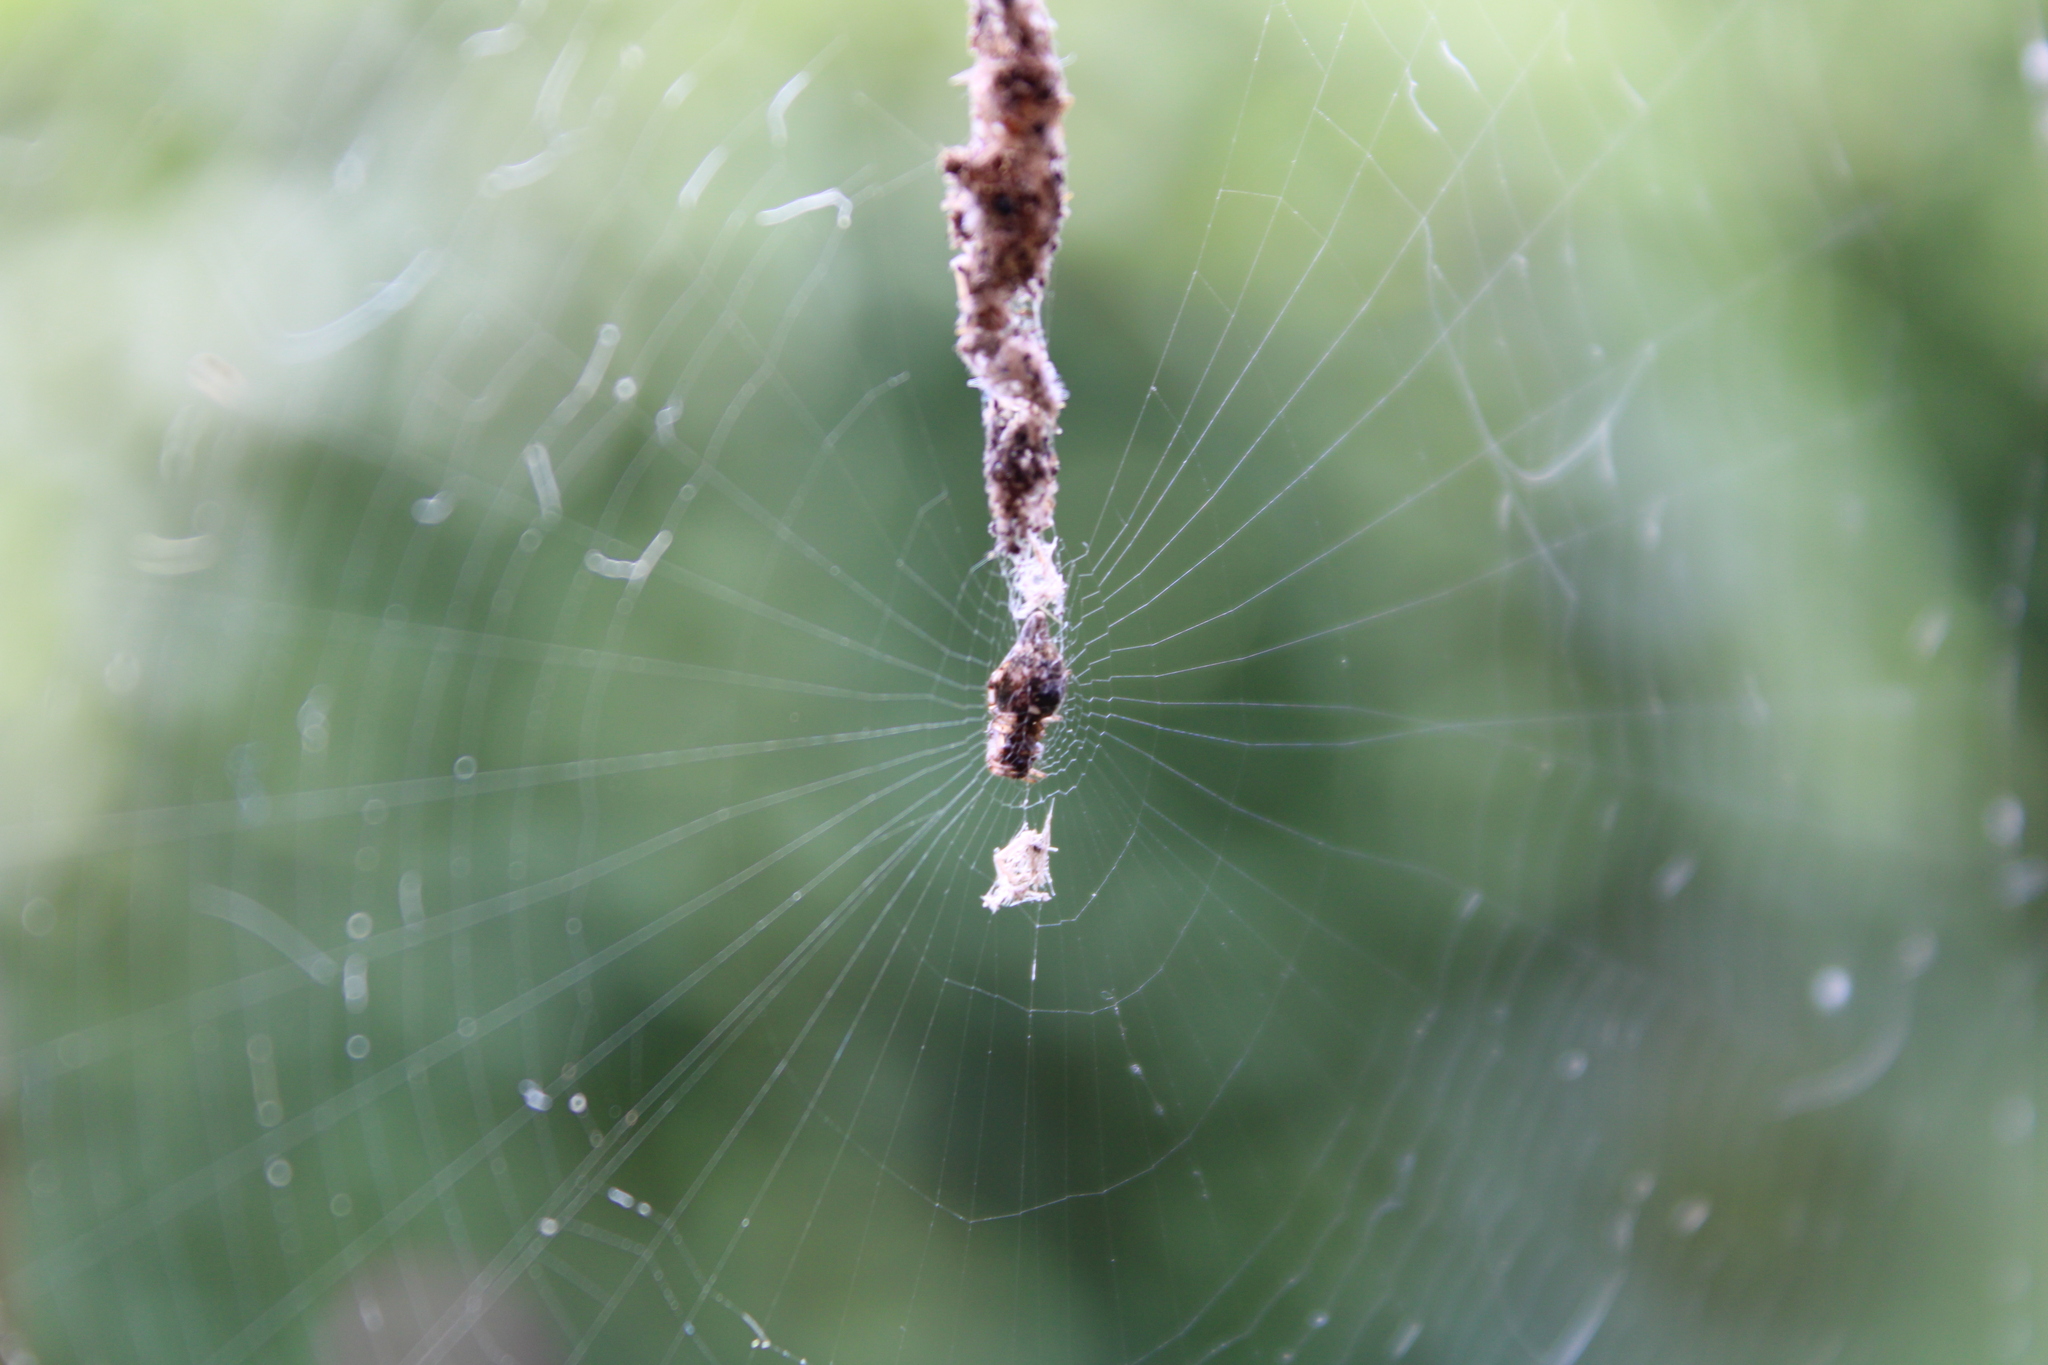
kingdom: Animalia
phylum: Arthropoda
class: Arachnida
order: Araneae
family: Araneidae
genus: Cyclosa
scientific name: Cyclosa turbinata
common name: Orb weavers
